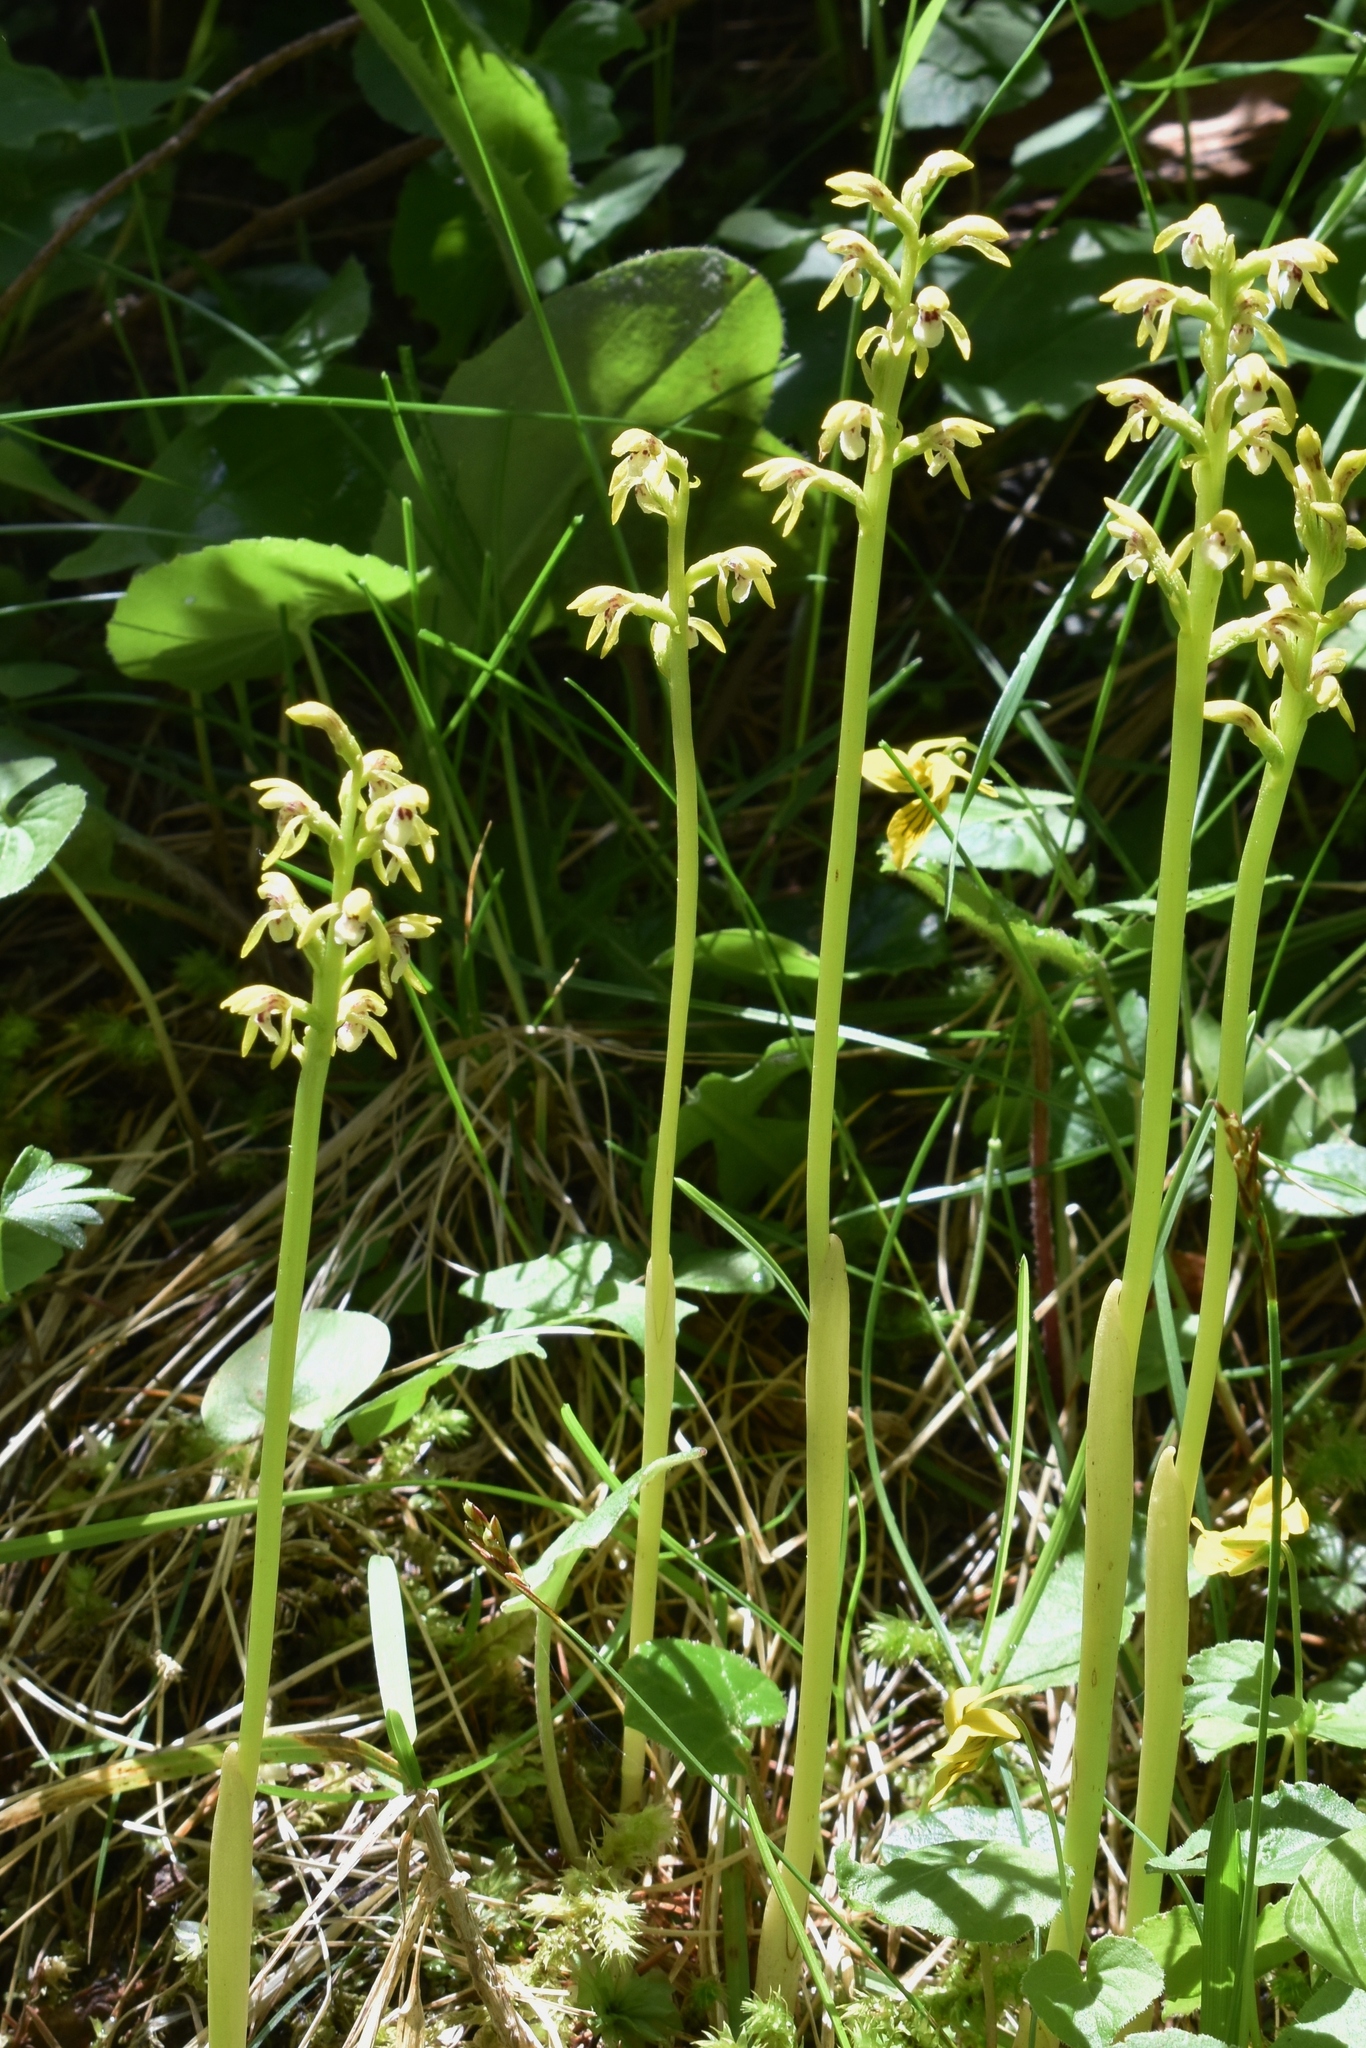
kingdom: Plantae
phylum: Tracheophyta
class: Liliopsida
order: Asparagales
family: Orchidaceae
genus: Corallorhiza
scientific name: Corallorhiza trifida
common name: Yellow coralroot
